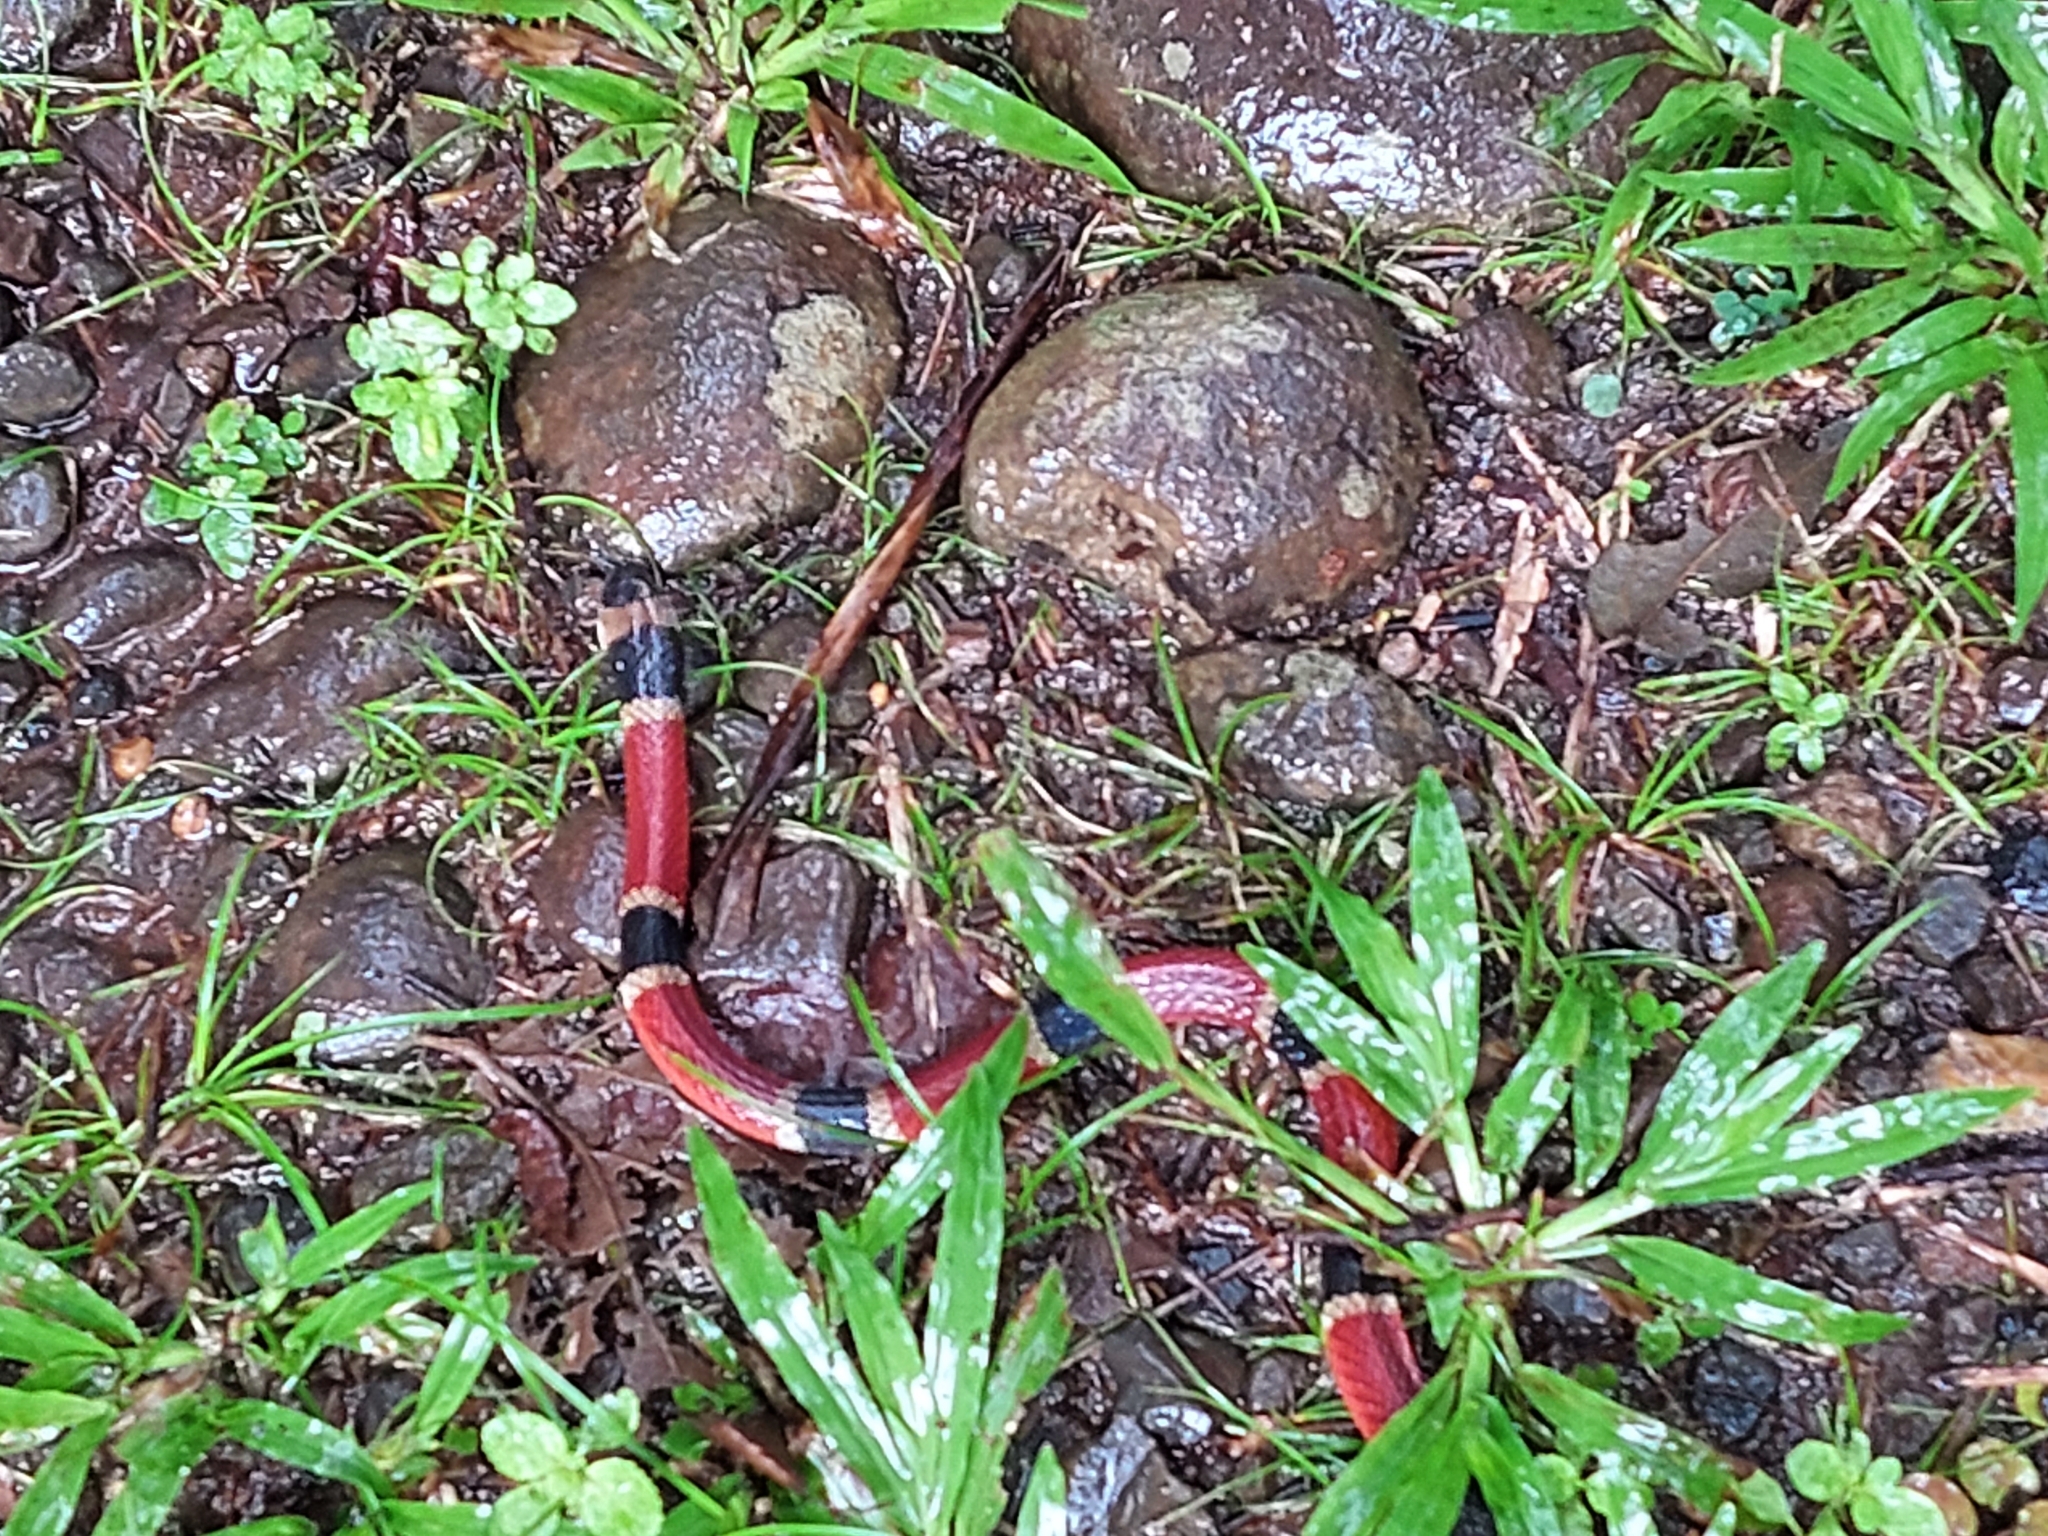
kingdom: Animalia
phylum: Chordata
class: Squamata
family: Elapidae
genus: Micrurus
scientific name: Micrurus nigrocinctus
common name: Babaspul [babaspul]
